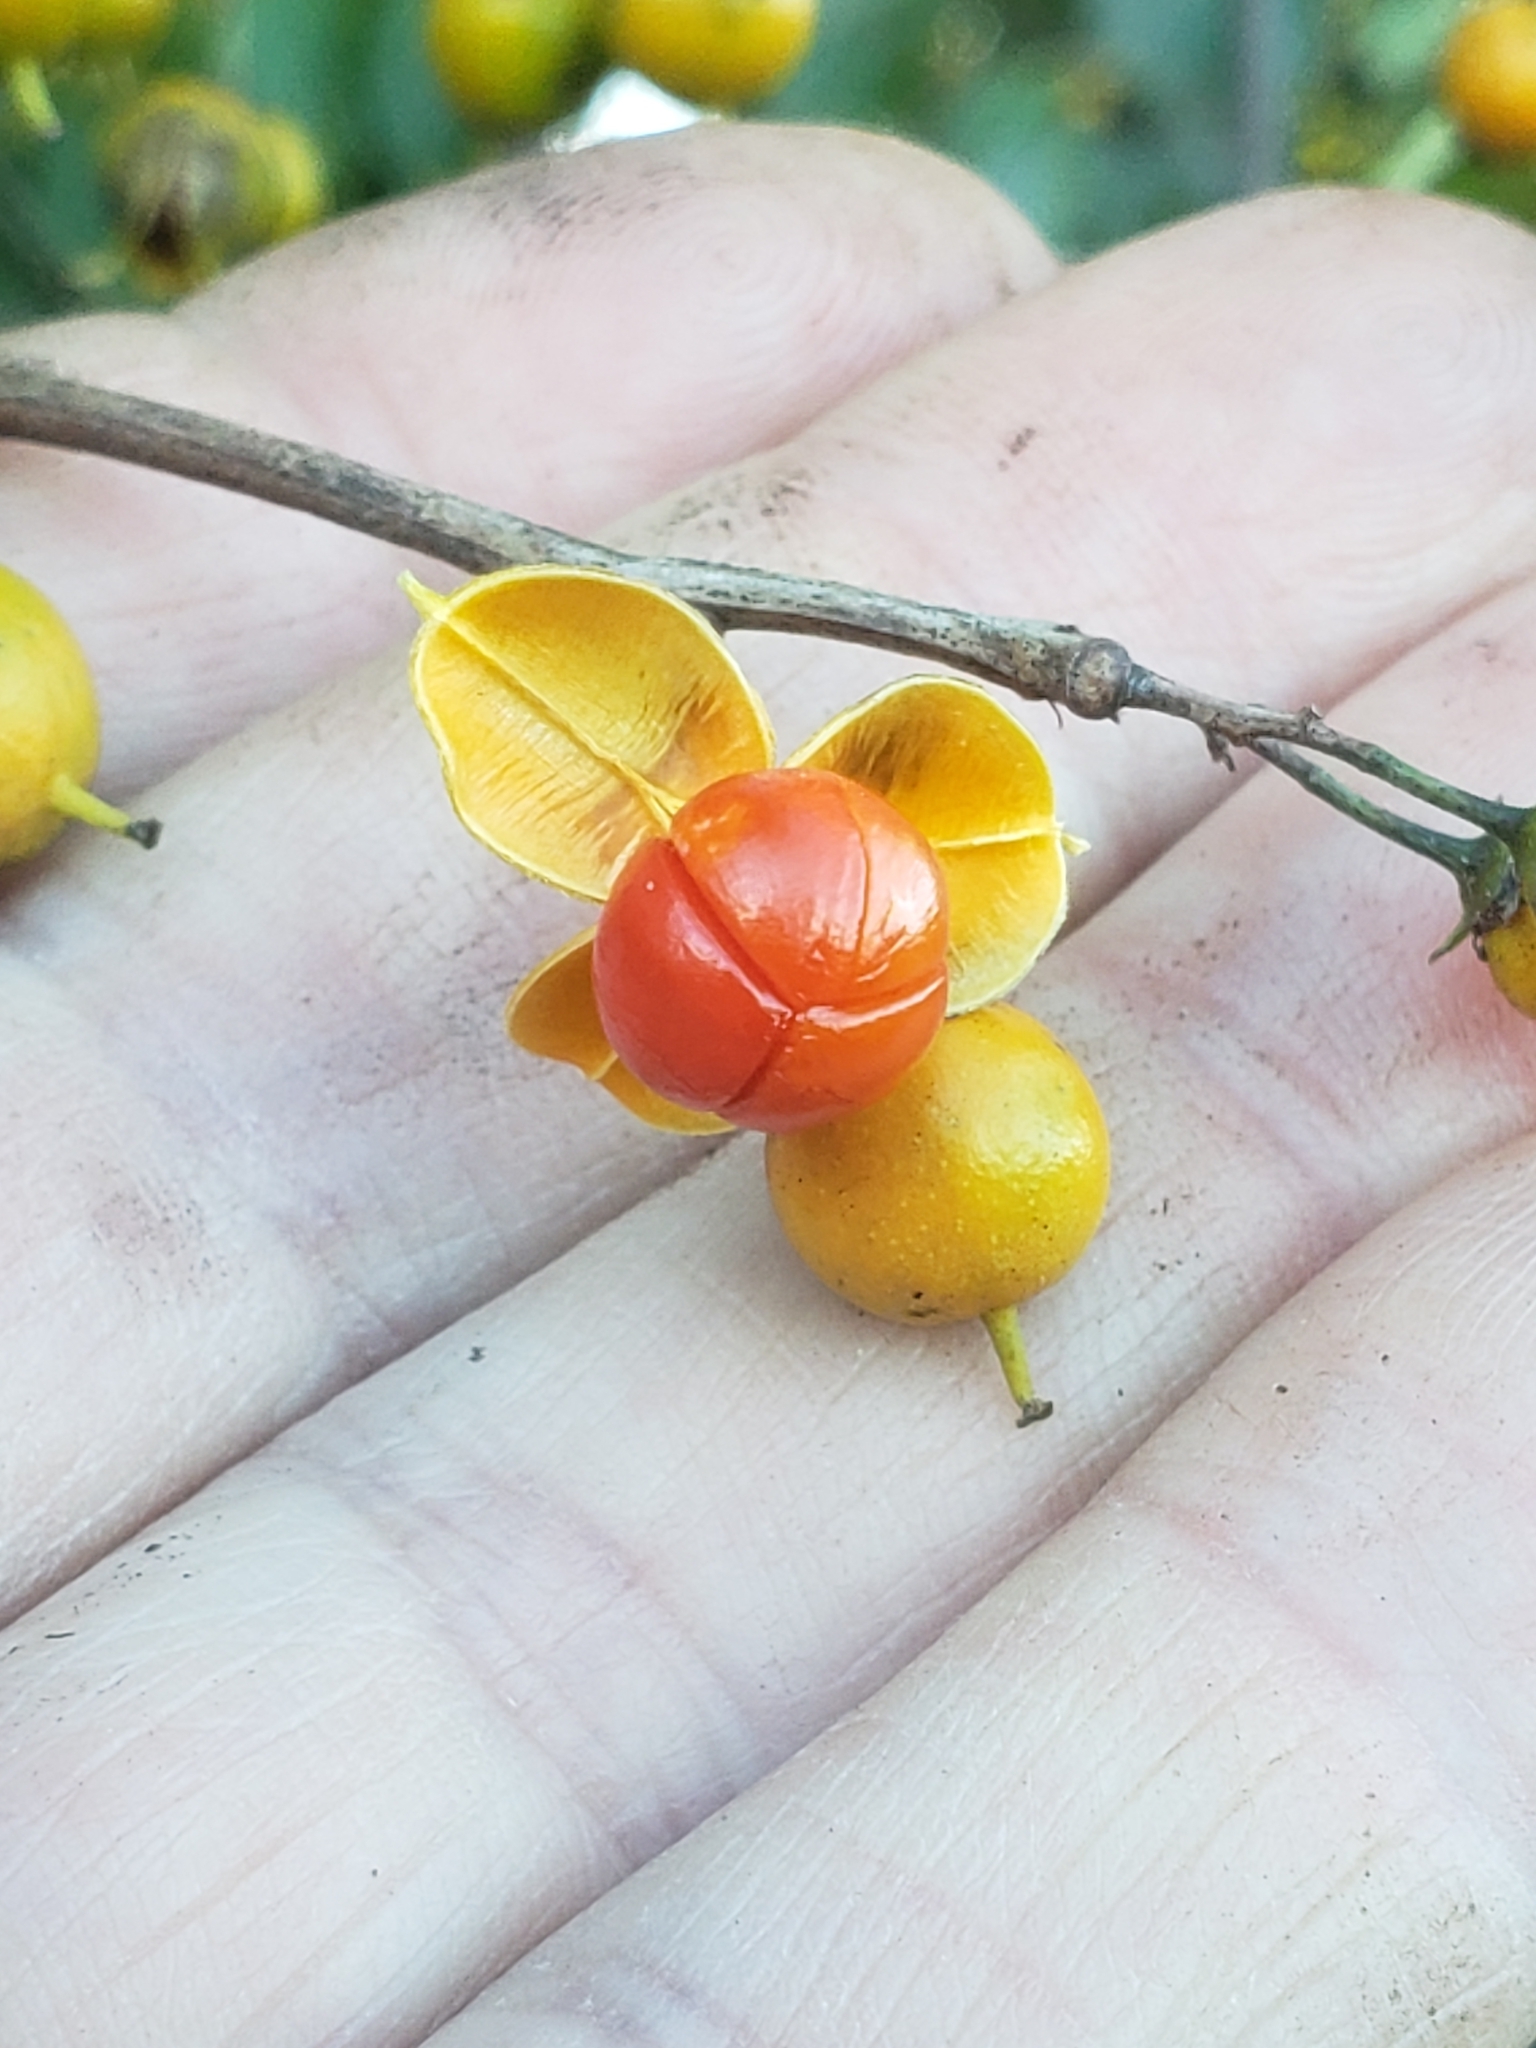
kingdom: Plantae
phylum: Tracheophyta
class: Magnoliopsida
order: Celastrales
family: Celastraceae
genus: Celastrus
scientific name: Celastrus orbiculatus
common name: Oriental bittersweet
